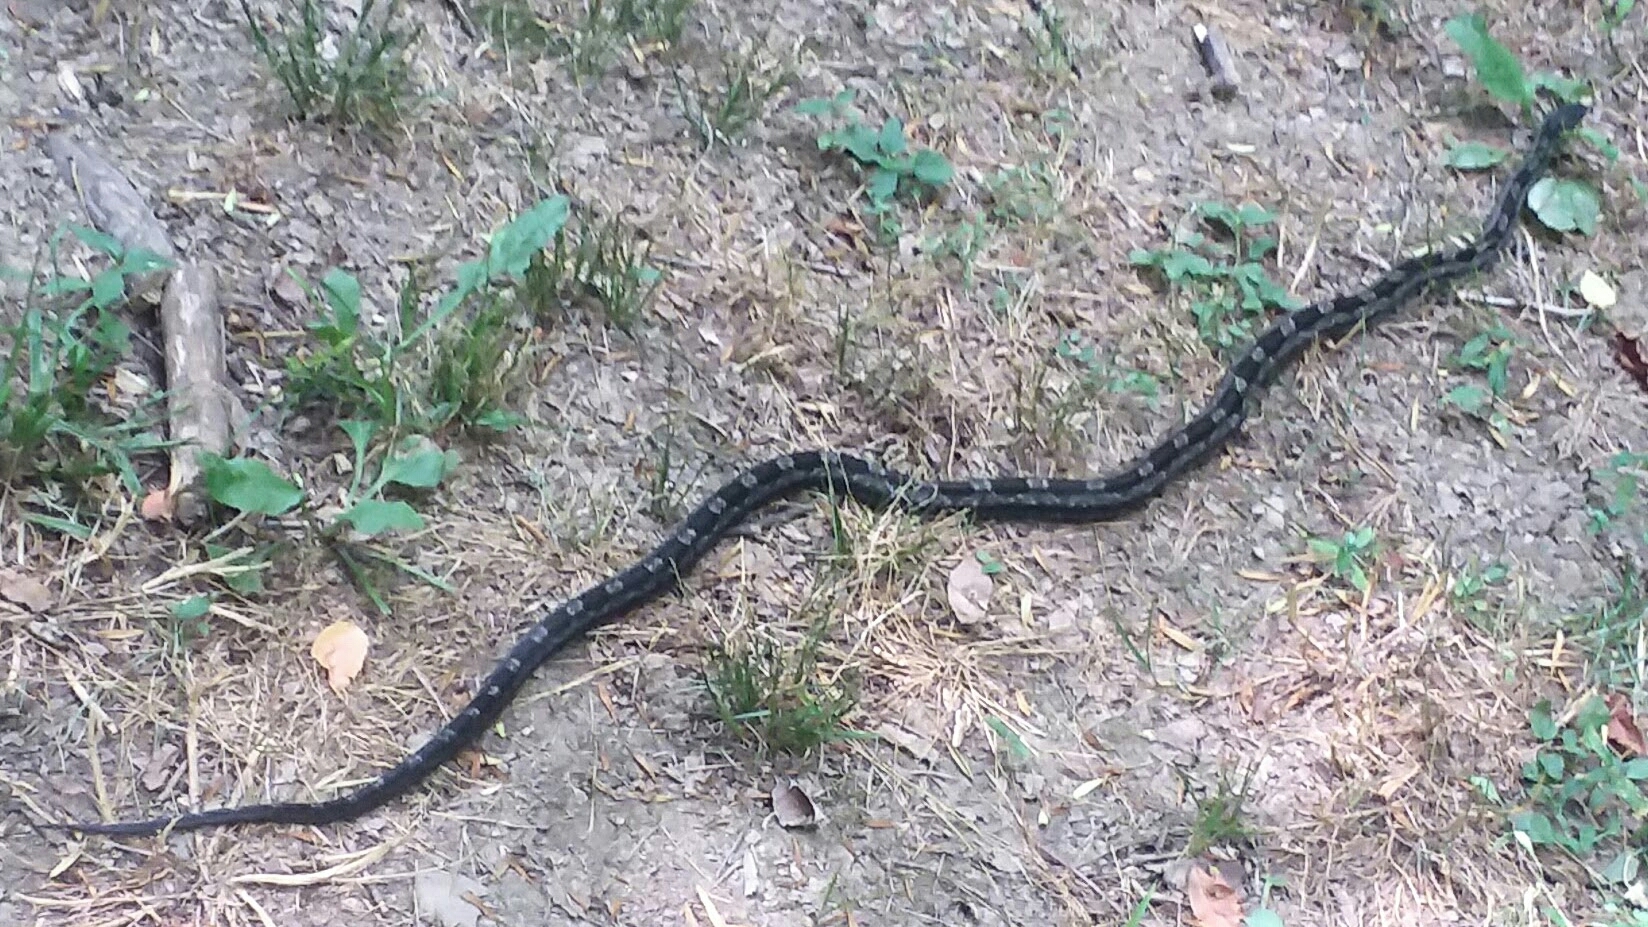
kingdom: Animalia
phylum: Chordata
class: Squamata
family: Colubridae
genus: Pantherophis
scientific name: Pantherophis spiloides
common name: Gray rat snake
